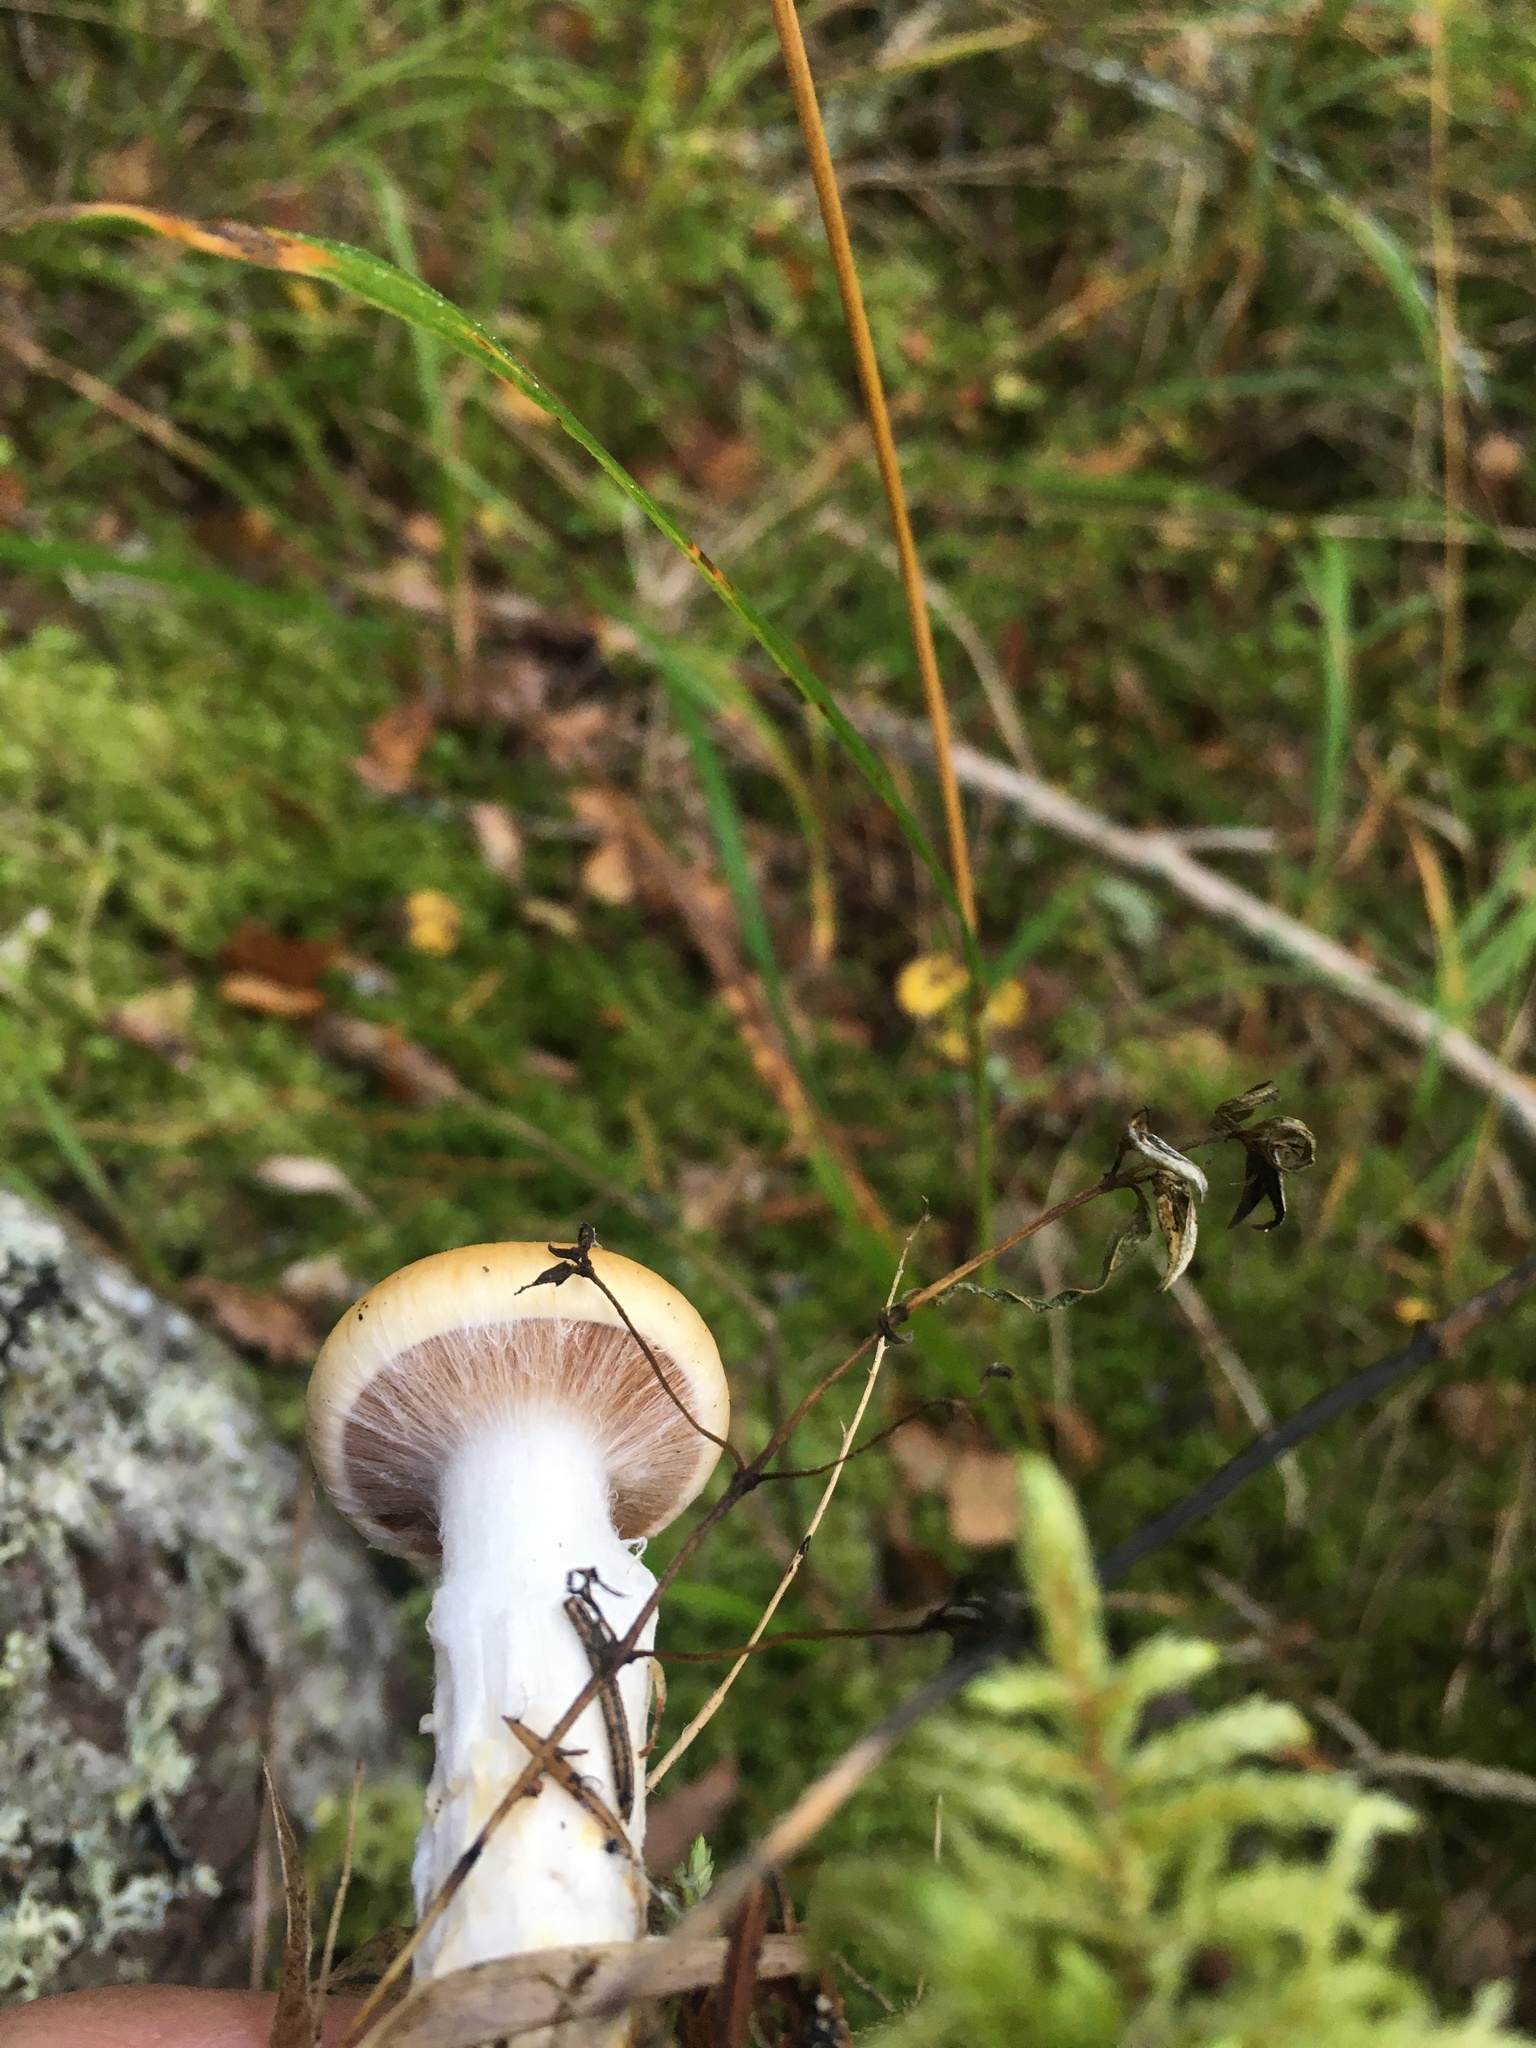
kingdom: Fungi
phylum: Basidiomycota
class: Agaricomycetes
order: Russulales
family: Russulaceae
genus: Russula
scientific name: Russula foetens
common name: Foetid russula
